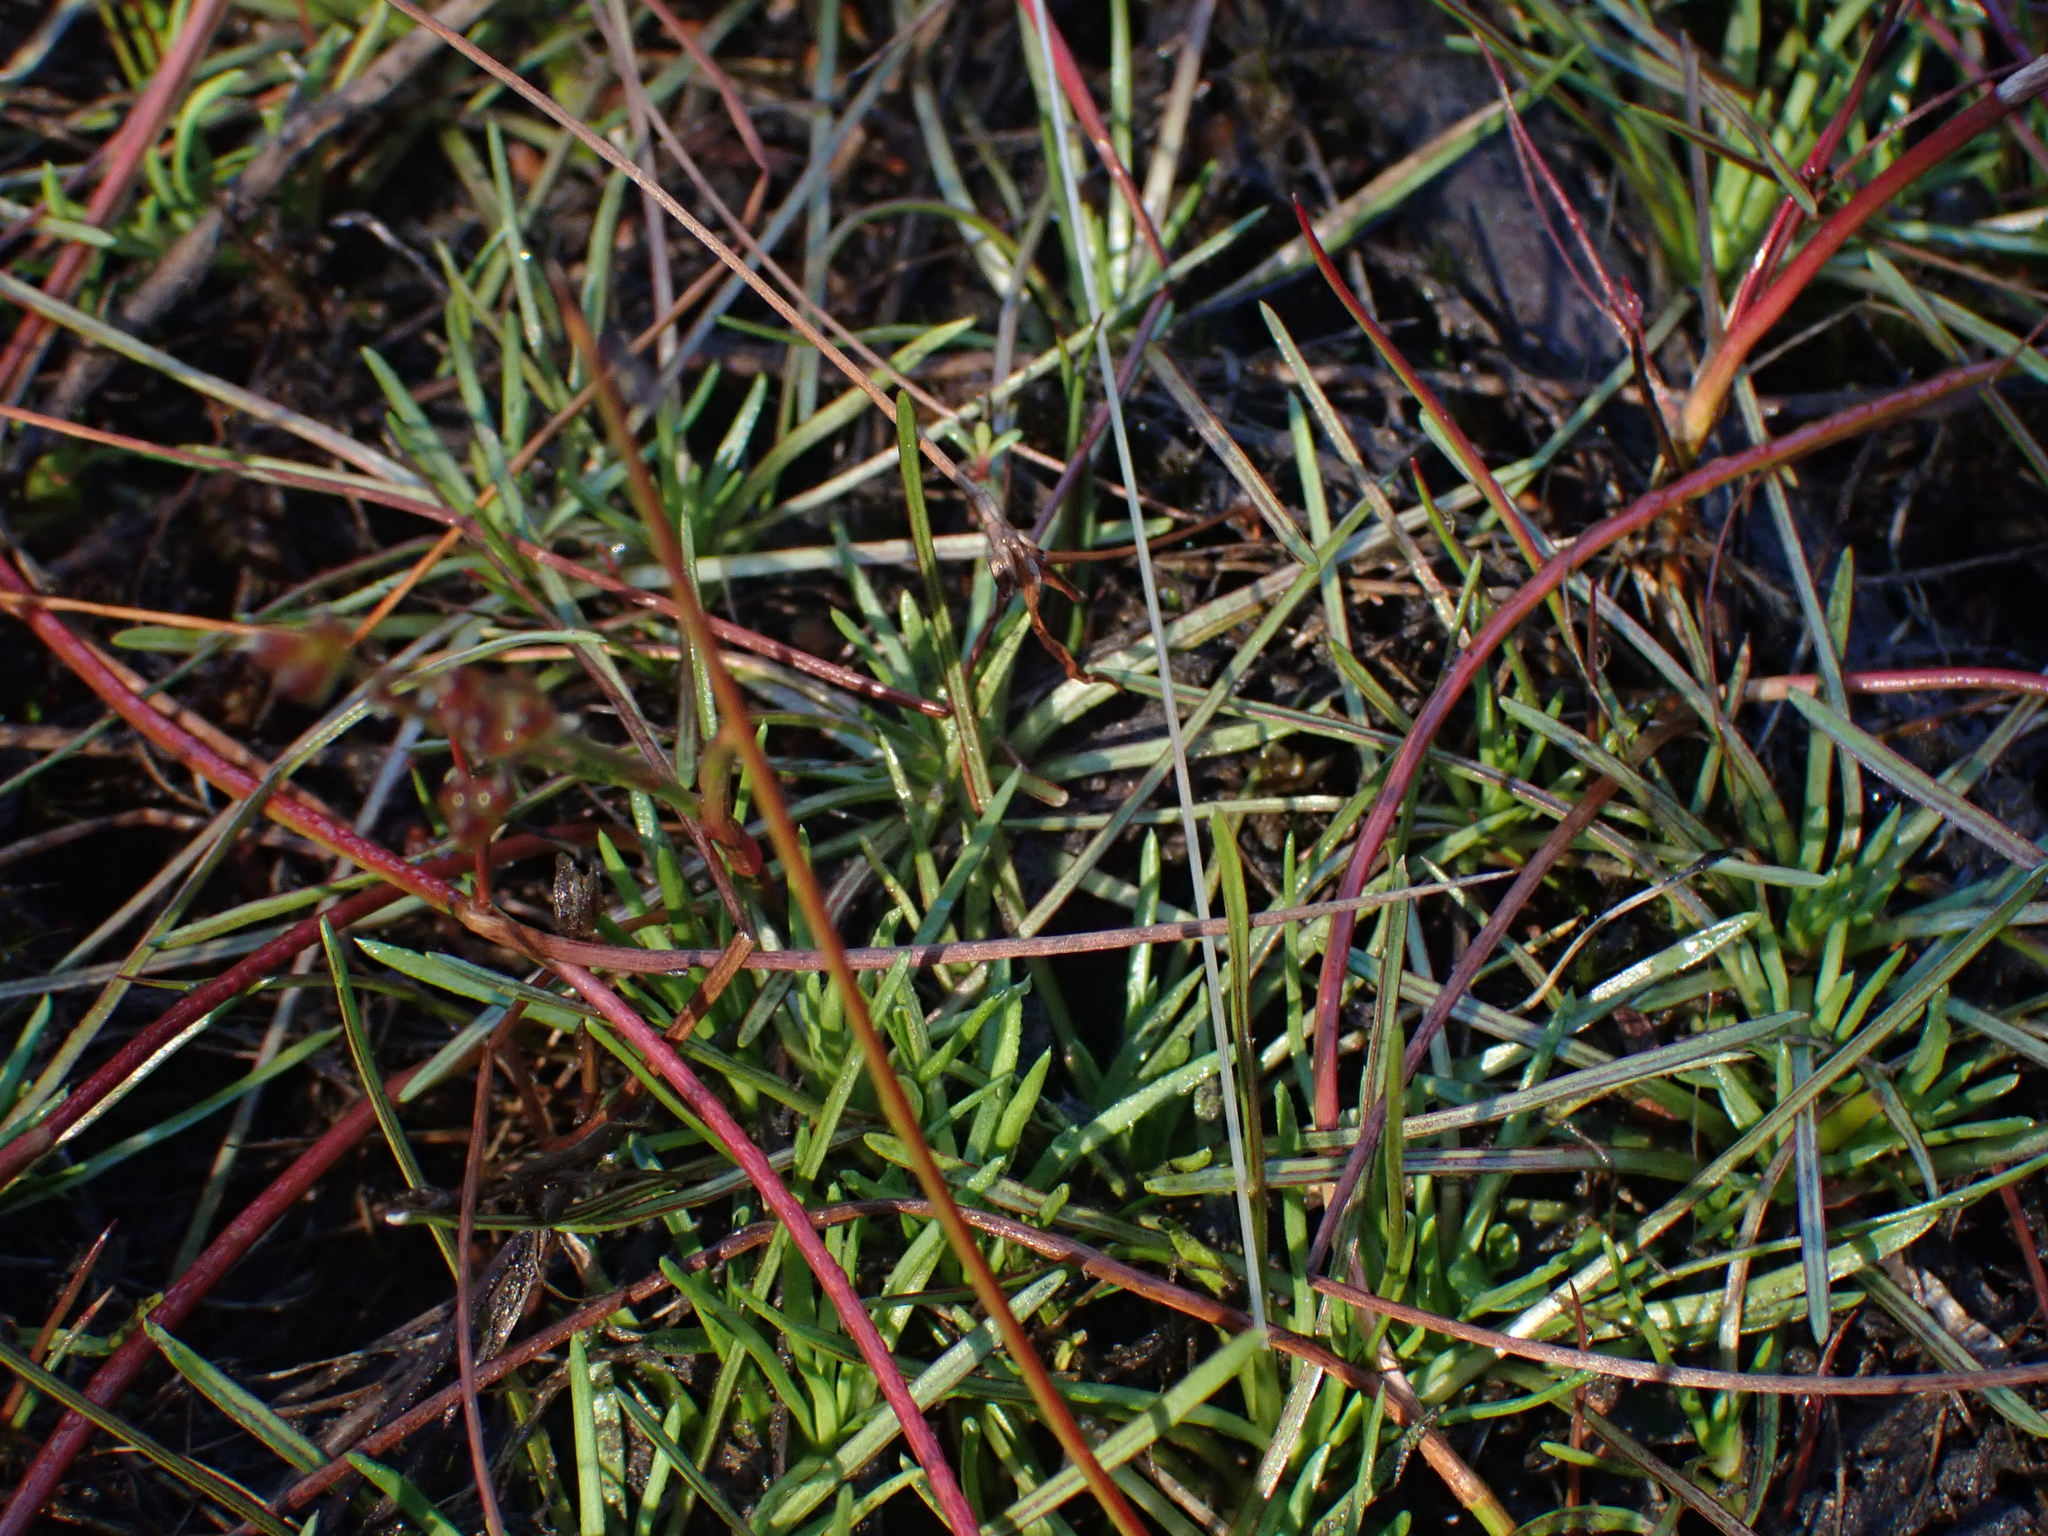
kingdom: Plantae
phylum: Tracheophyta
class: Magnoliopsida
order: Asterales
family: Stylidiaceae
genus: Oreostylidium
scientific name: Oreostylidium subulatum
